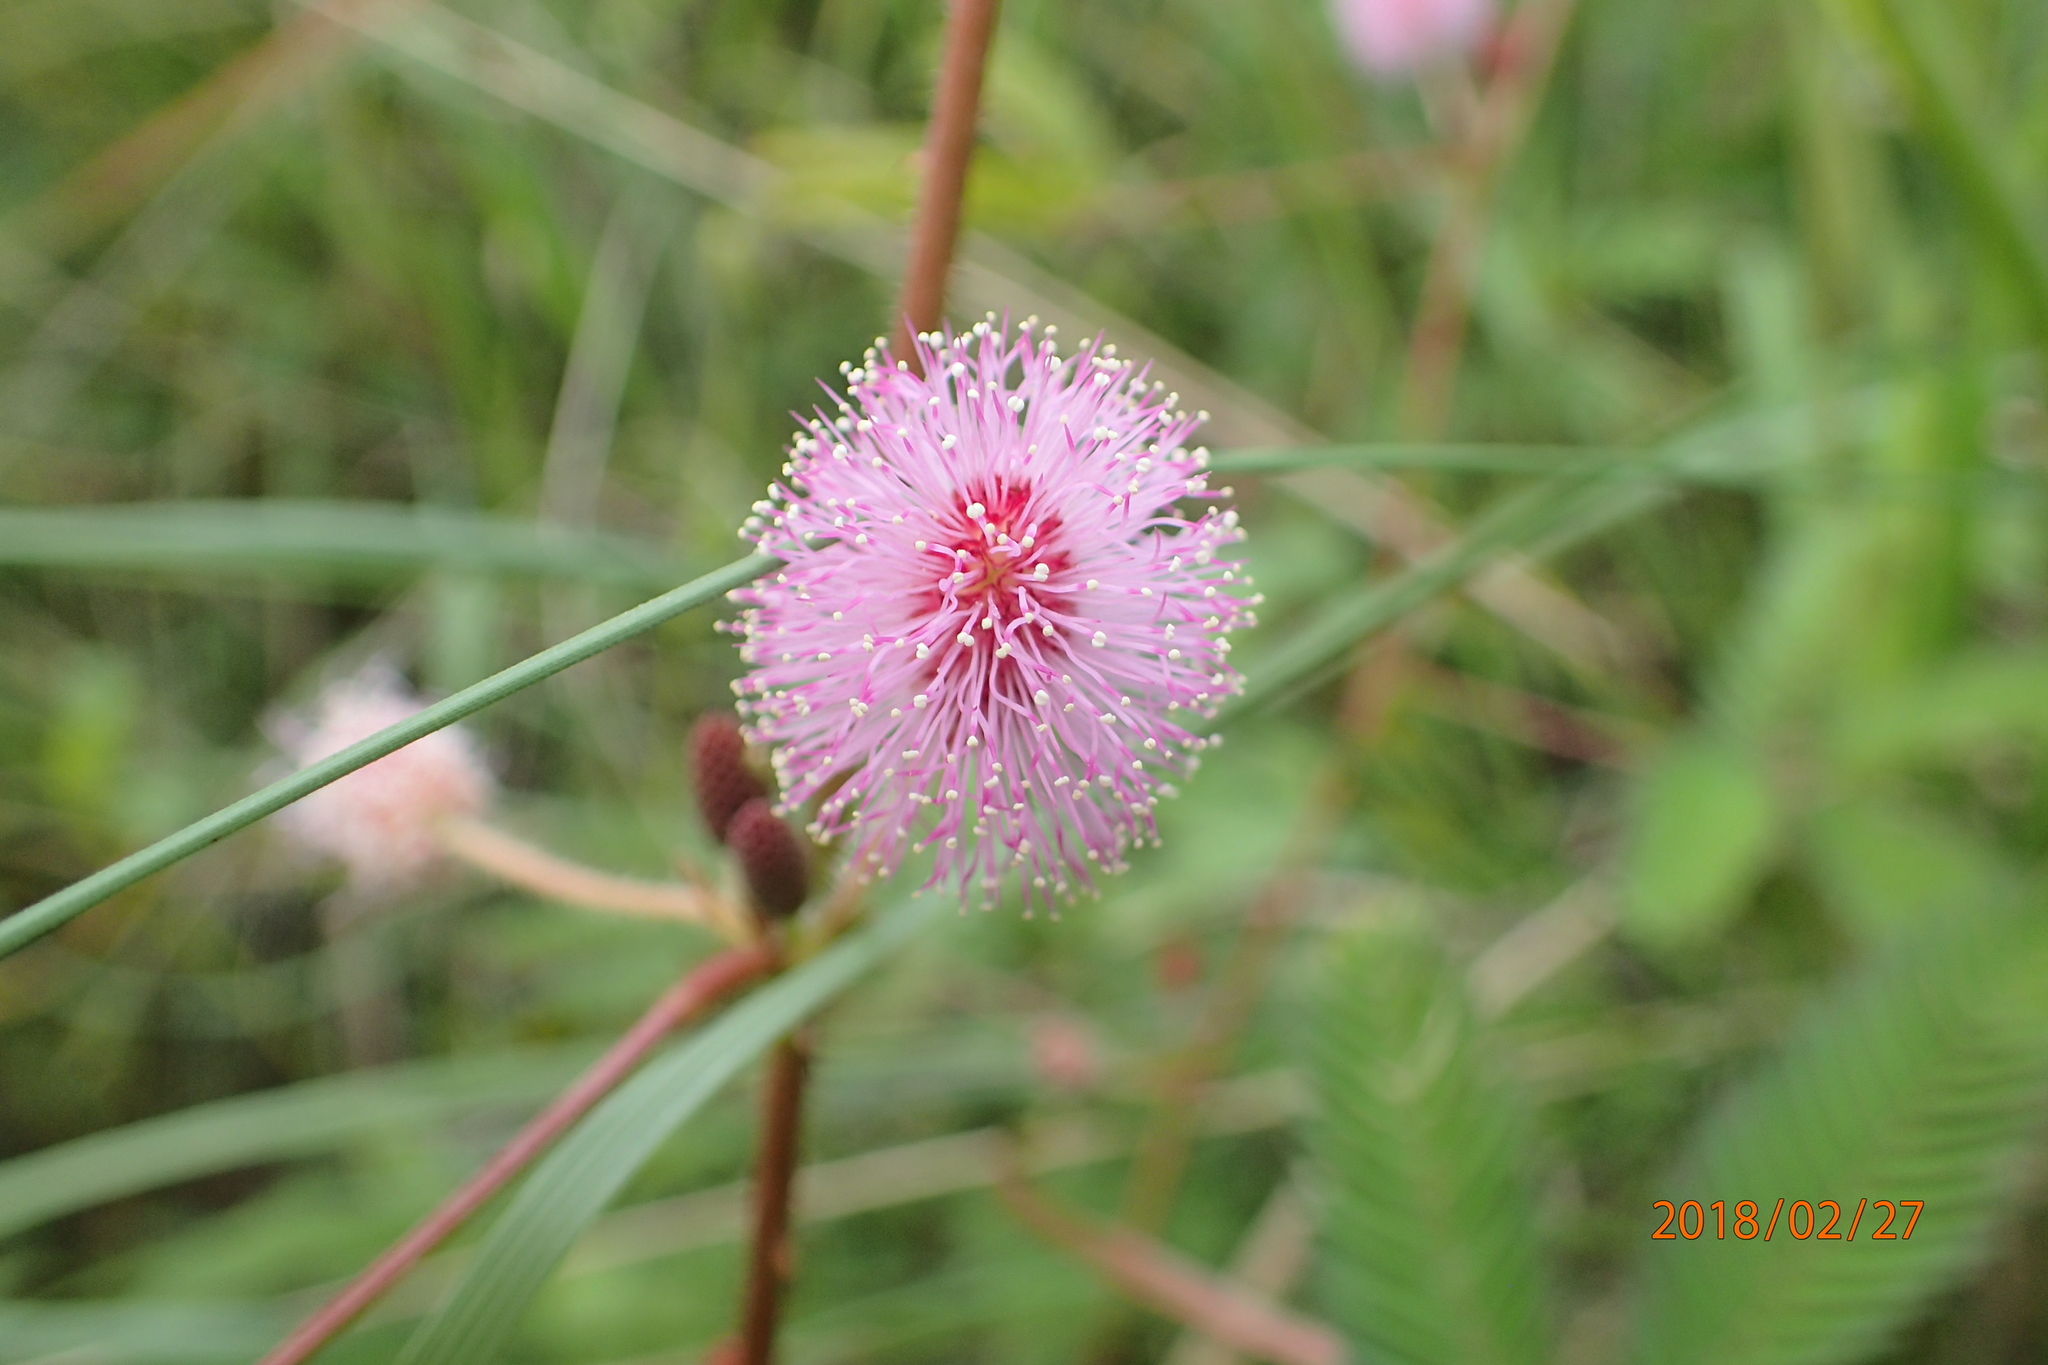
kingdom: Plantae
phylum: Tracheophyta
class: Magnoliopsida
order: Fabales
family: Fabaceae
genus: Mimosa
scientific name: Mimosa pudica
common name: Sensitive plant
